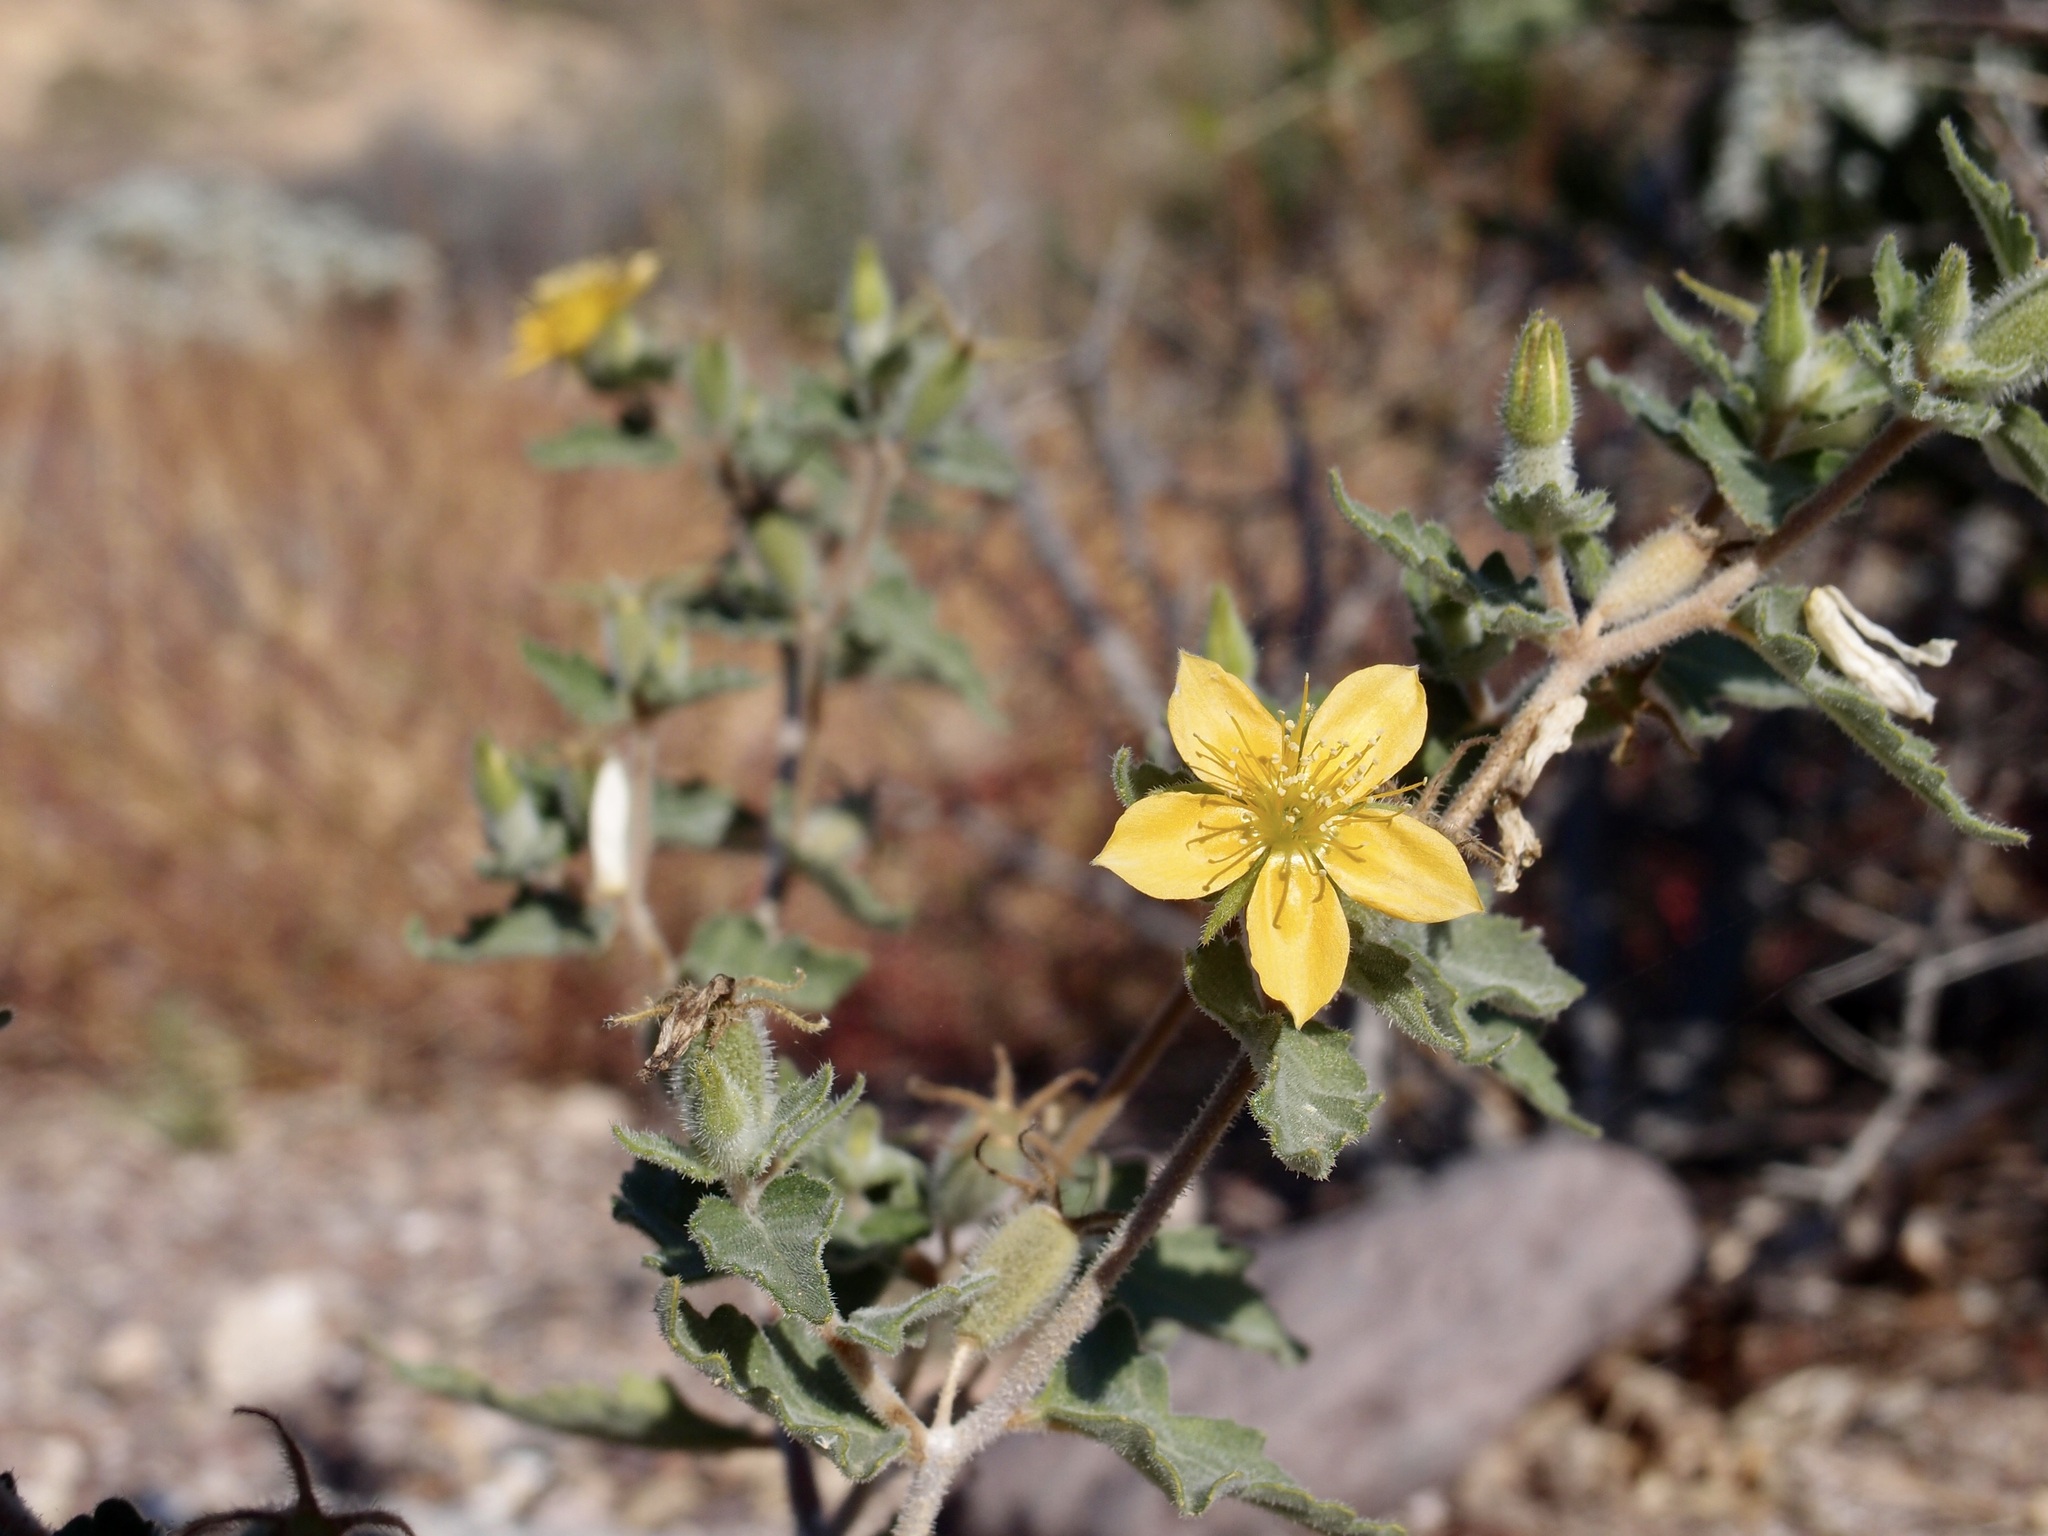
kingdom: Plantae
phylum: Tracheophyta
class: Magnoliopsida
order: Cornales
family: Loasaceae
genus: Mentzelia
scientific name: Mentzelia adhaerens
